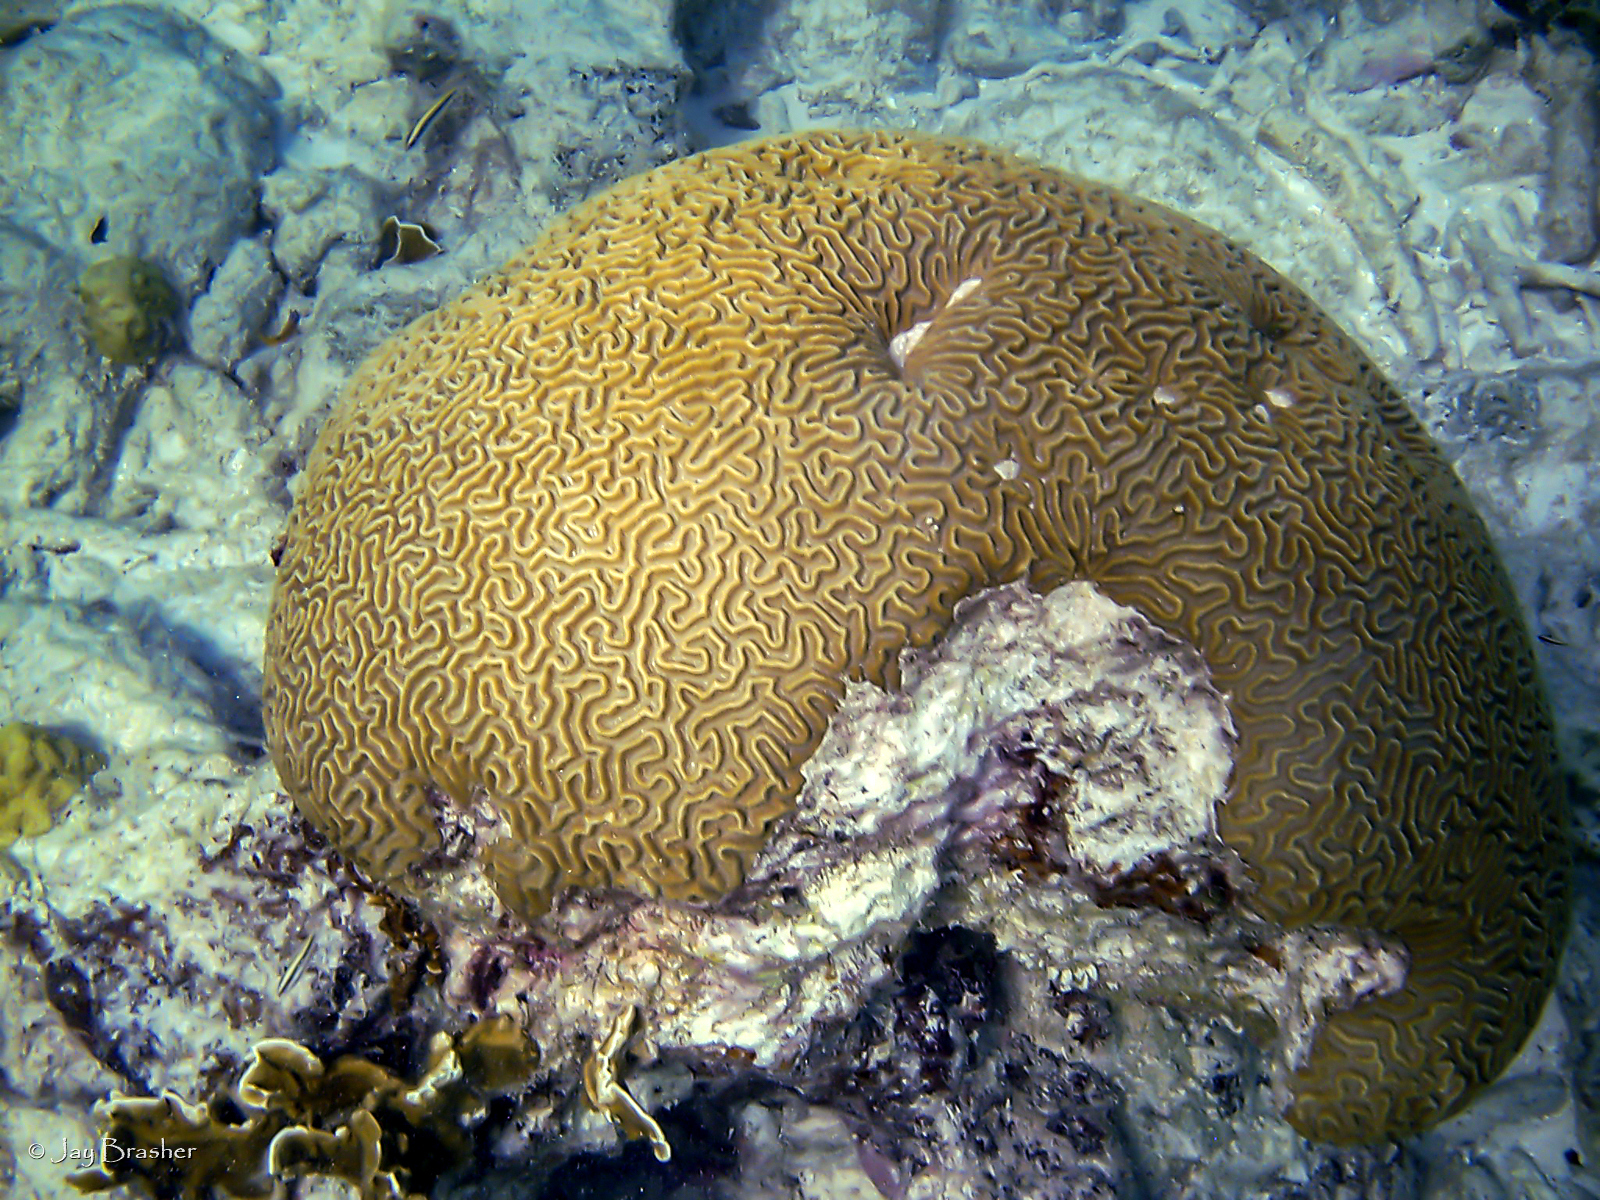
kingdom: Animalia
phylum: Cnidaria
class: Anthozoa
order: Scleractinia
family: Faviidae
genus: Pseudodiploria
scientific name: Pseudodiploria strigosa
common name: Symmetrical brain coral
